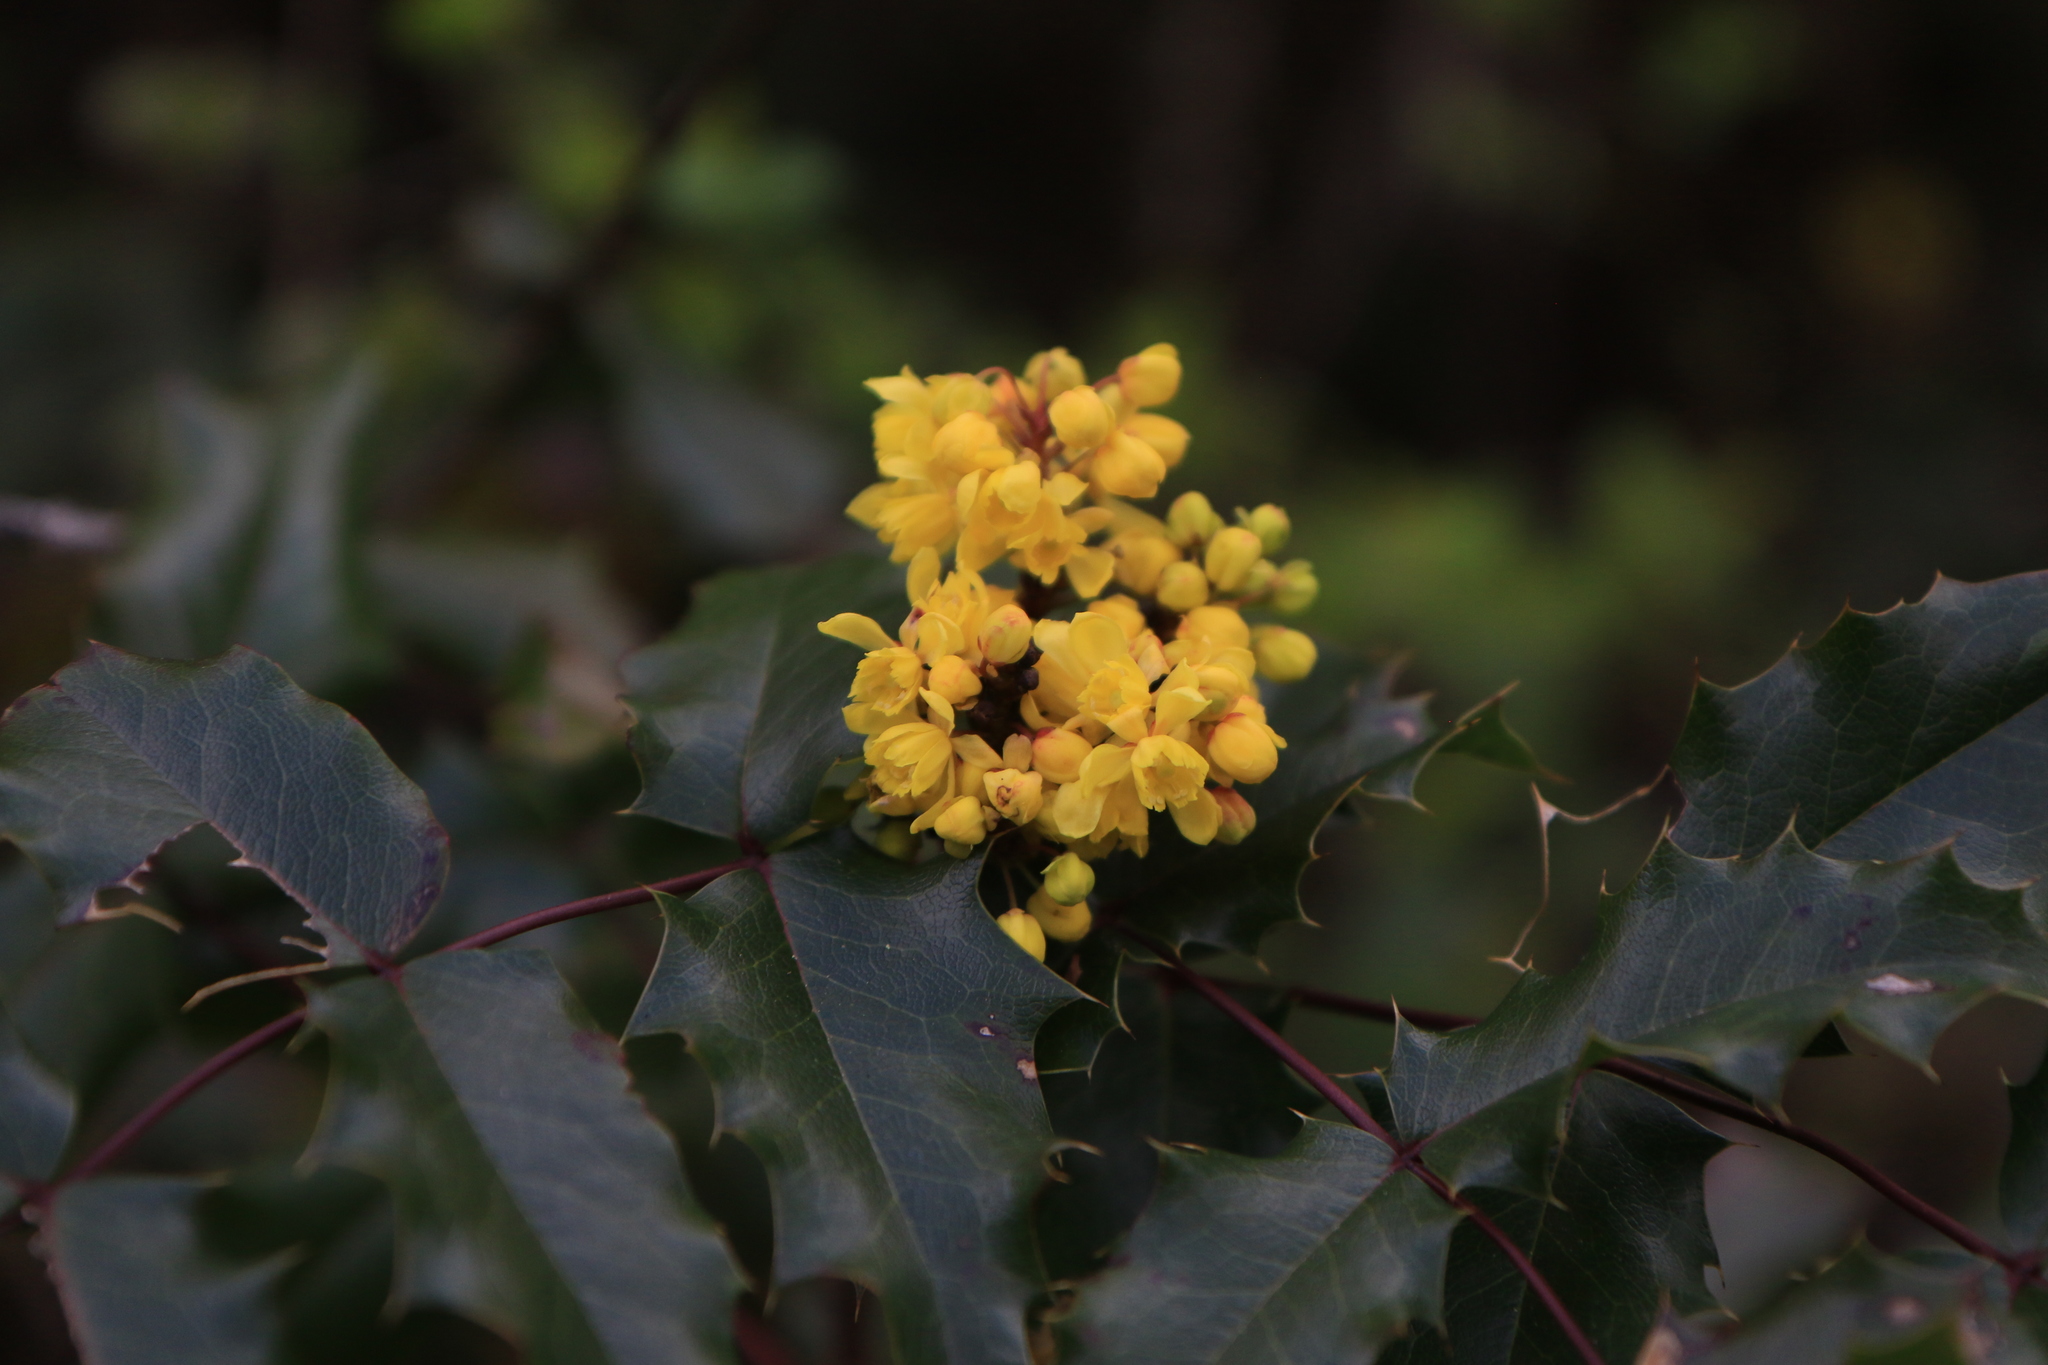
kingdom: Plantae
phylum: Tracheophyta
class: Magnoliopsida
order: Ranunculales
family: Berberidaceae
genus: Mahonia
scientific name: Mahonia aquifolium
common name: Oregon-grape
